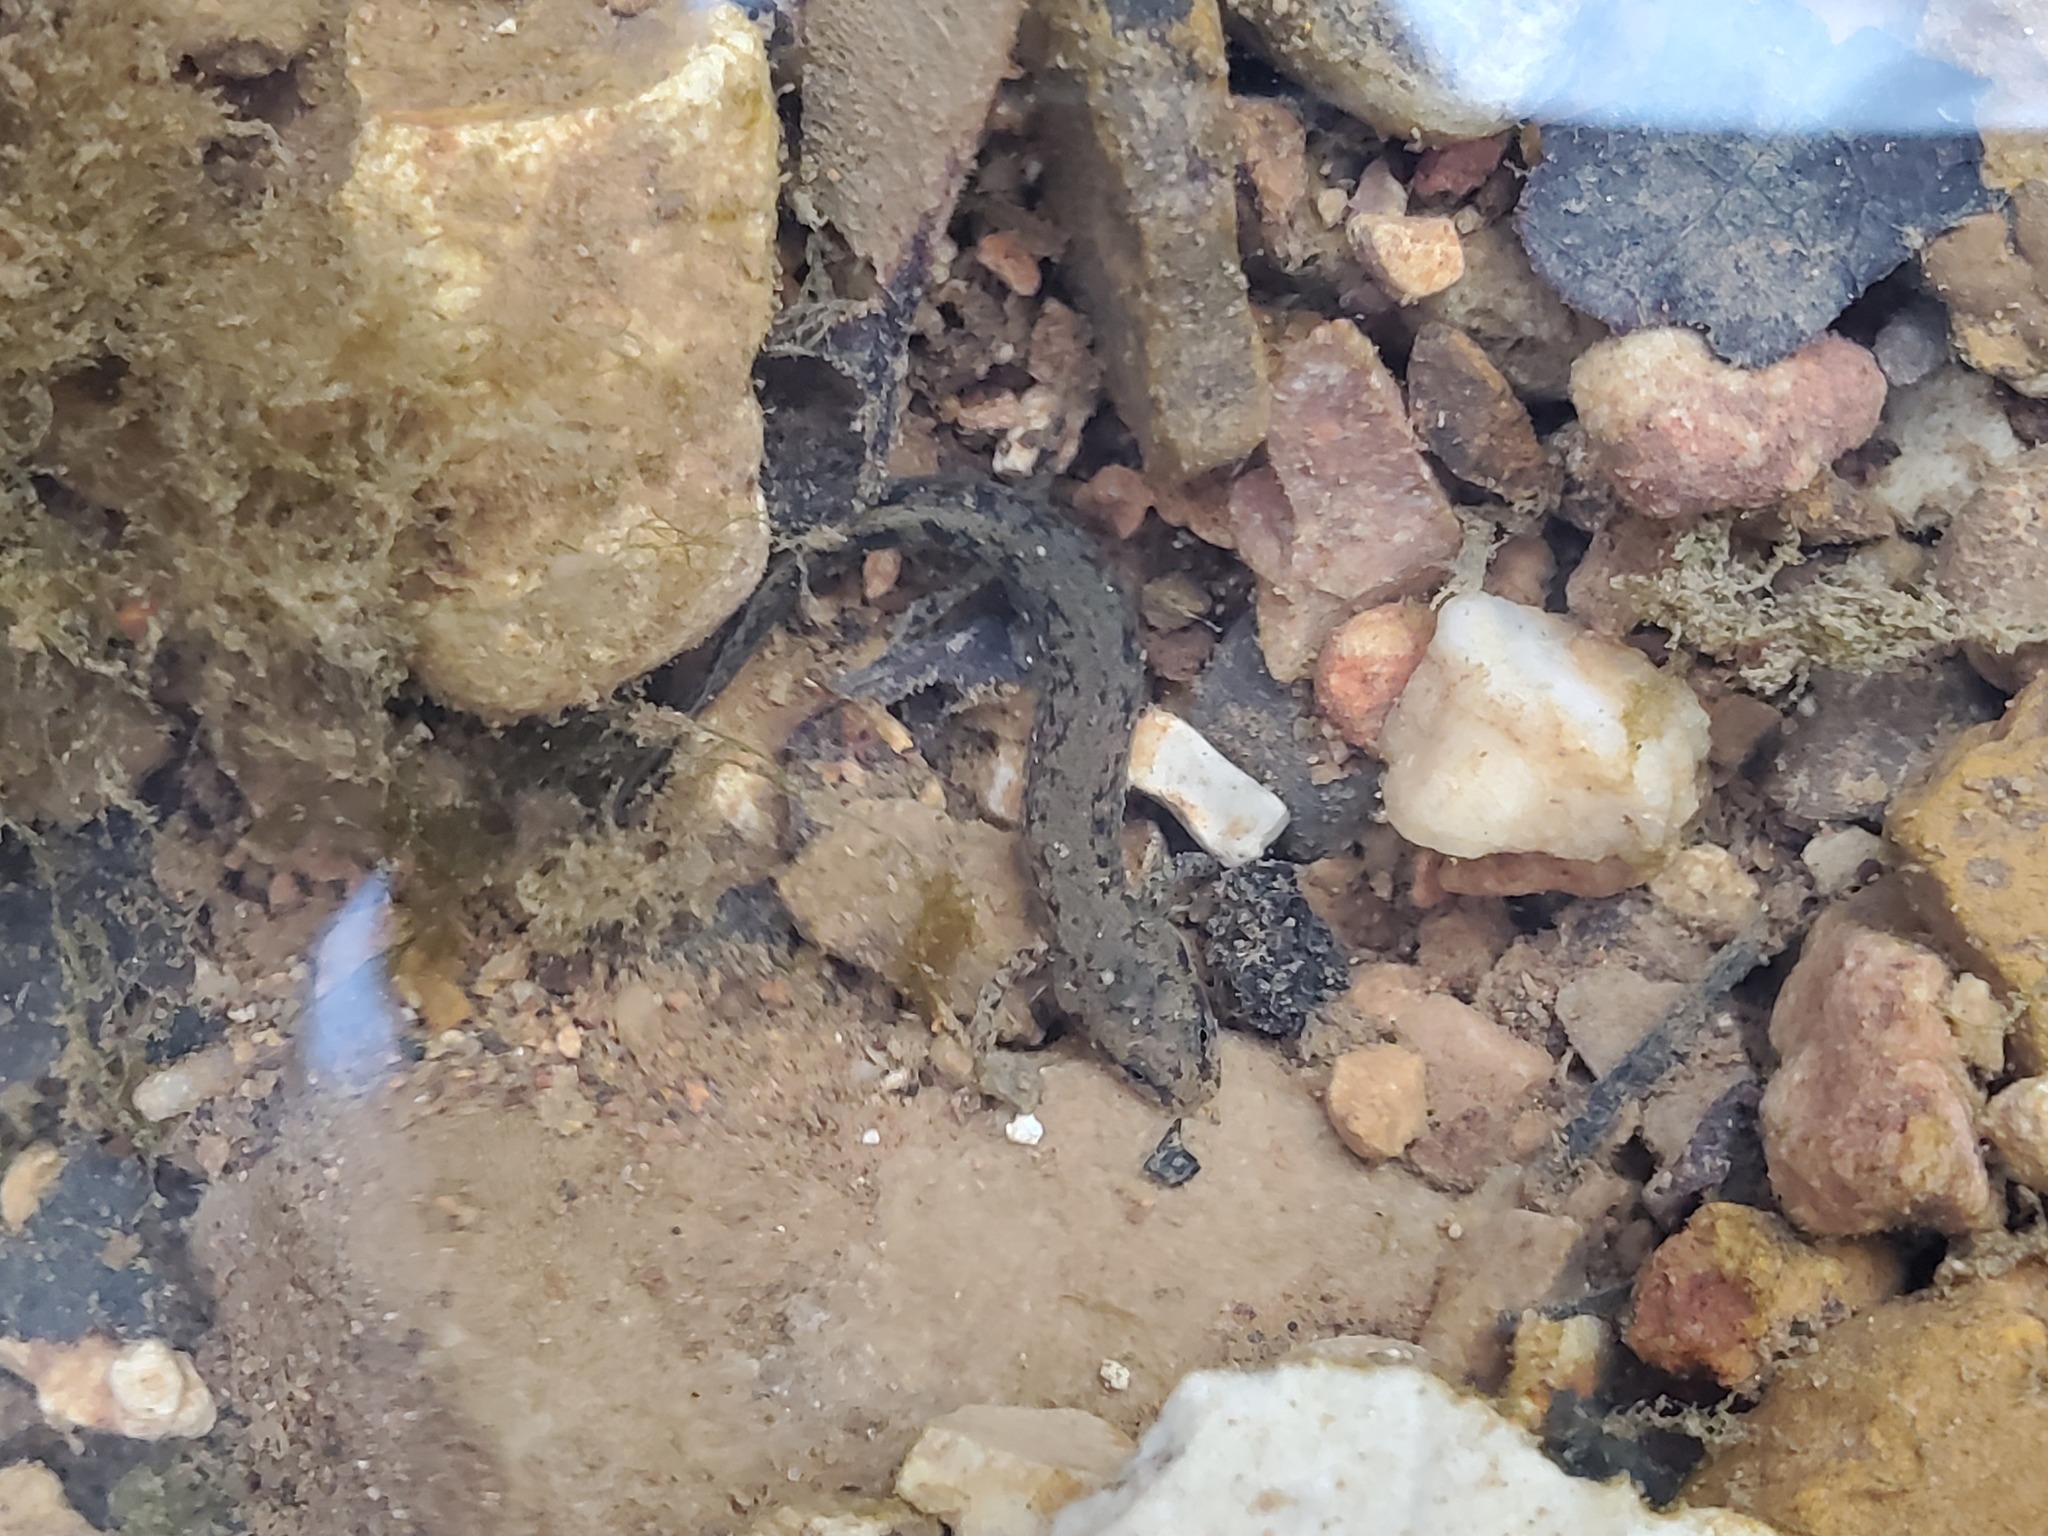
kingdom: Animalia
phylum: Chordata
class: Amphibia
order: Caudata
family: Plethodontidae
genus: Eurycea
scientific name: Eurycea cirrigera
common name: Southern two-lined salamander
